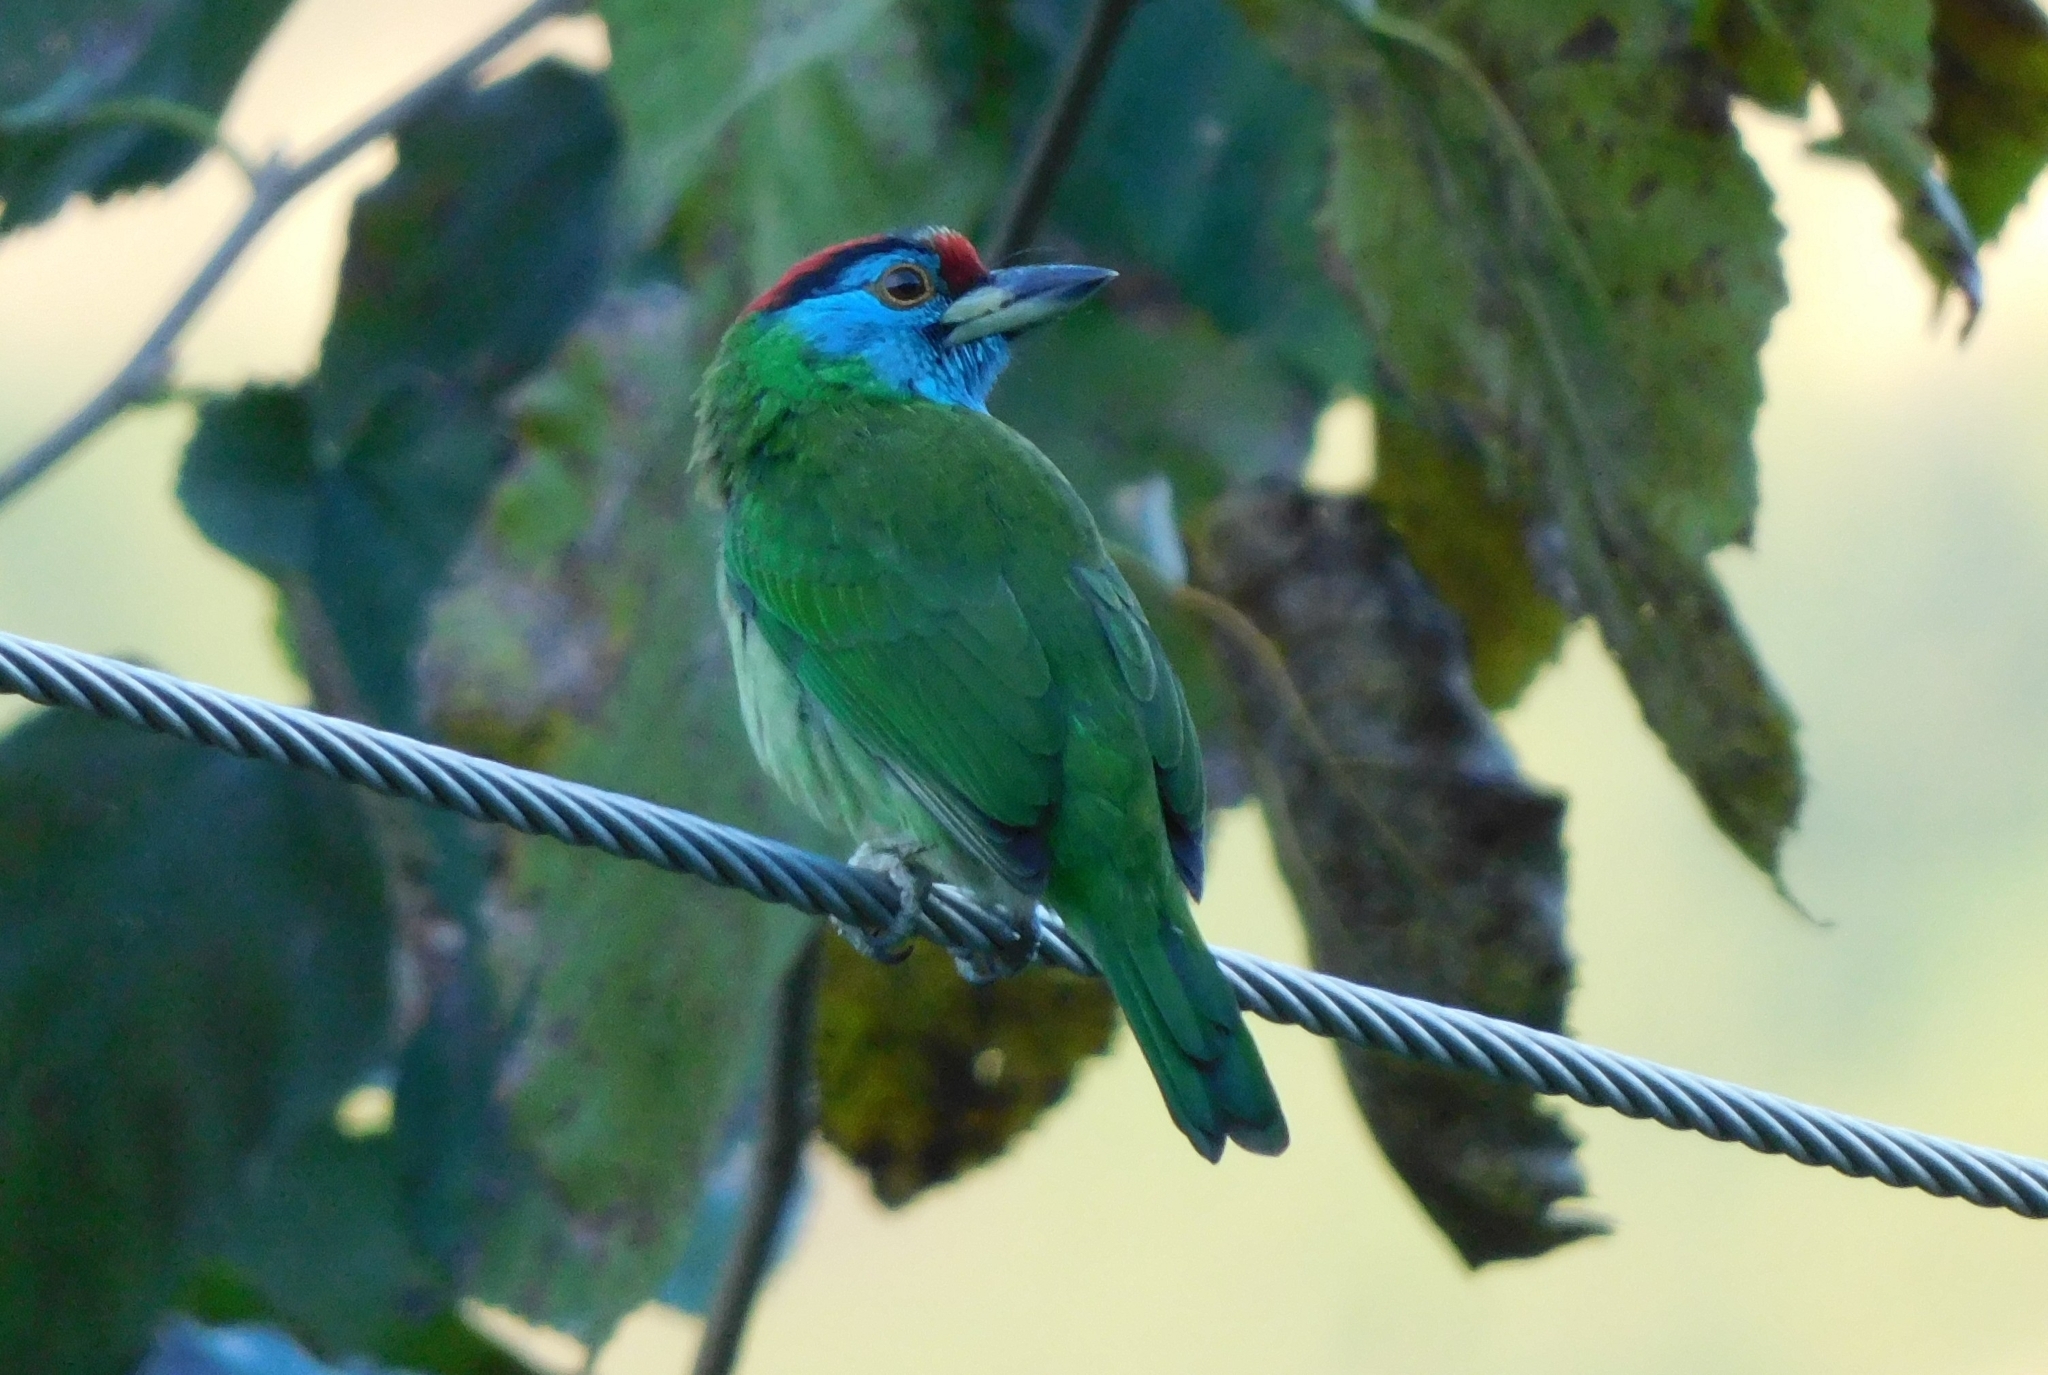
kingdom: Animalia
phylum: Chordata
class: Aves
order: Piciformes
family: Megalaimidae
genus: Psilopogon
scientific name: Psilopogon asiaticus
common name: Blue-throated barbet
